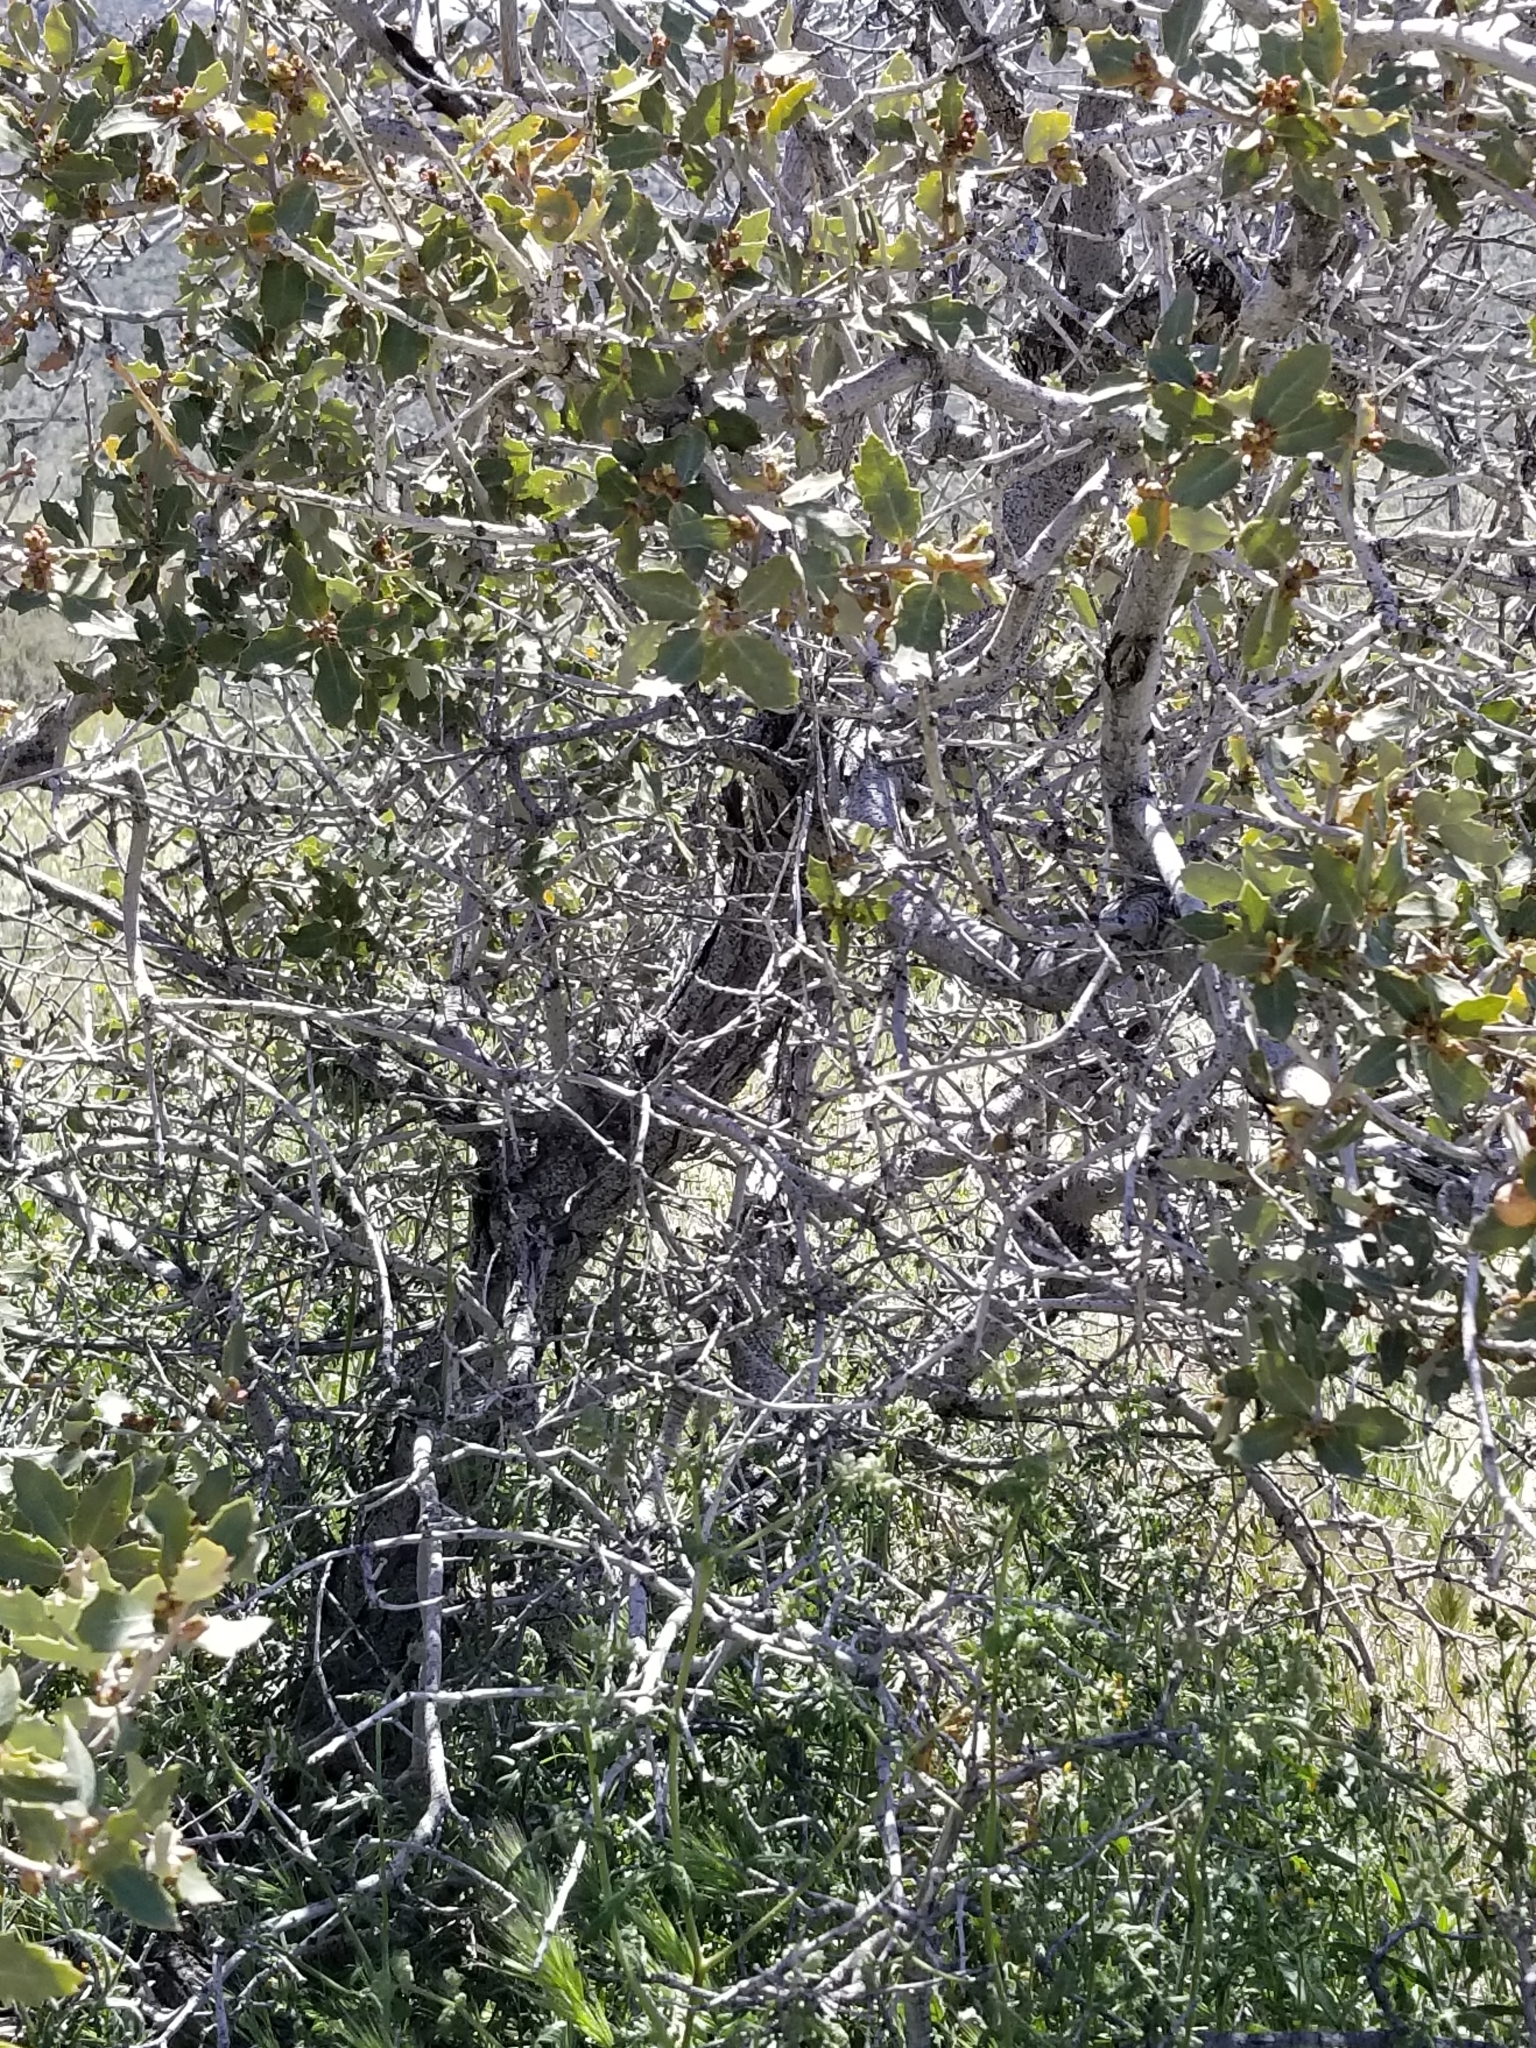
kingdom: Plantae
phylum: Tracheophyta
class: Magnoliopsida
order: Fagales
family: Fagaceae
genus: Quercus
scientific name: Quercus cornelius-mulleri
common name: Muller oak
